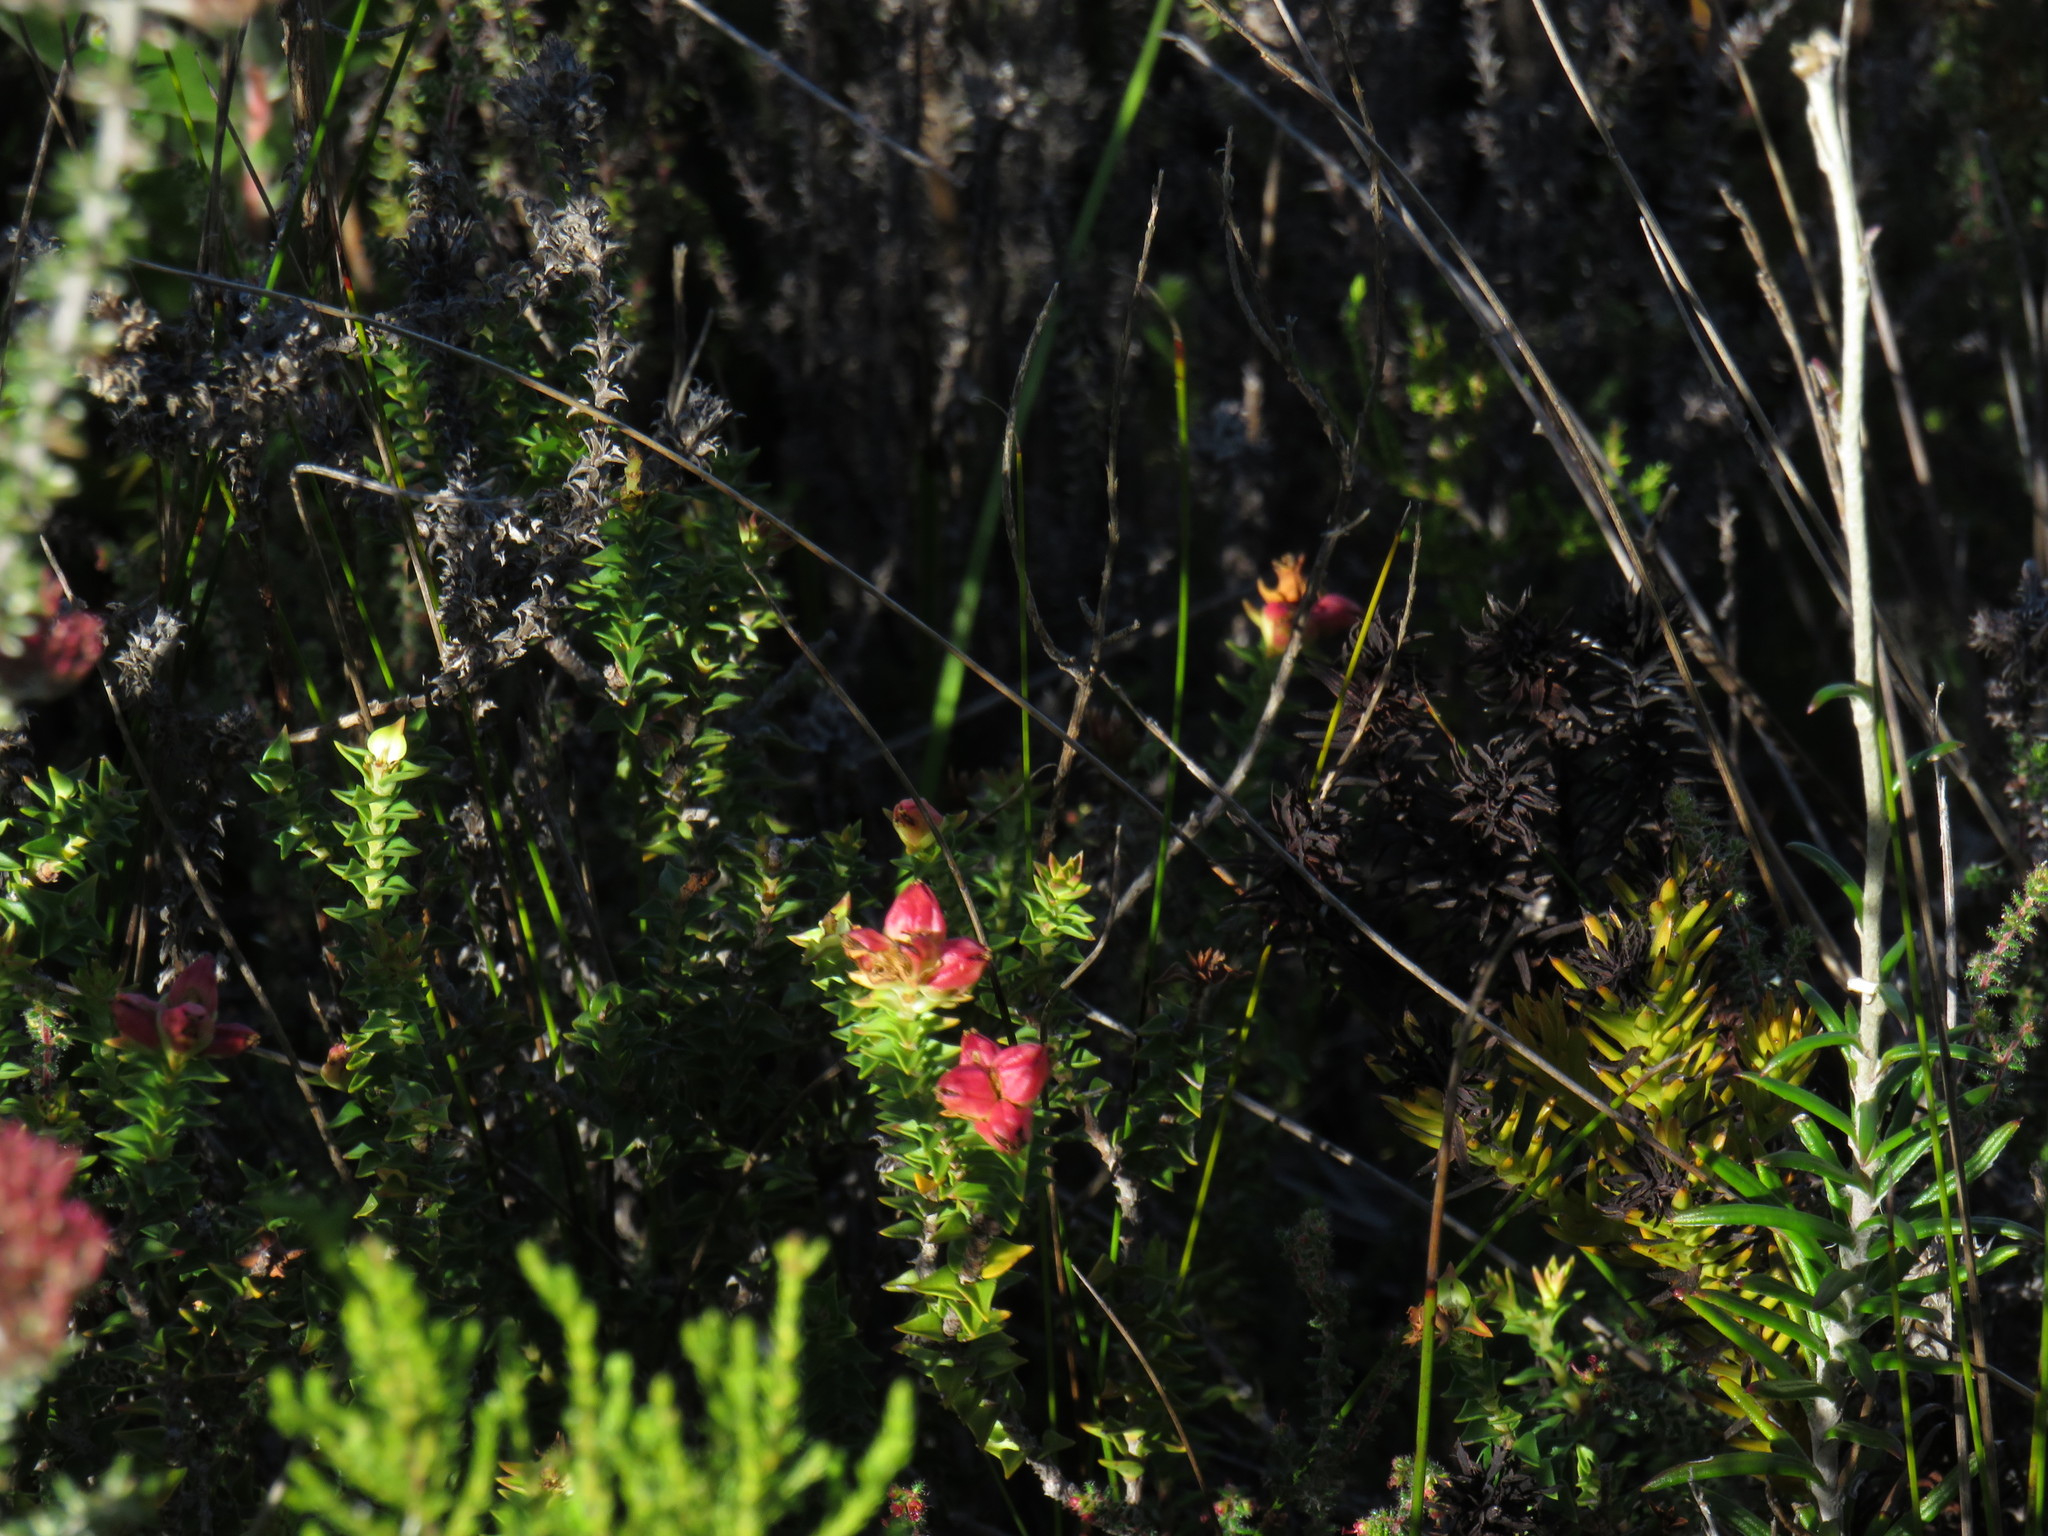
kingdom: Plantae
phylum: Tracheophyta
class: Magnoliopsida
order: Myrtales
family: Penaeaceae
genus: Penaea
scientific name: Penaea mucronata
